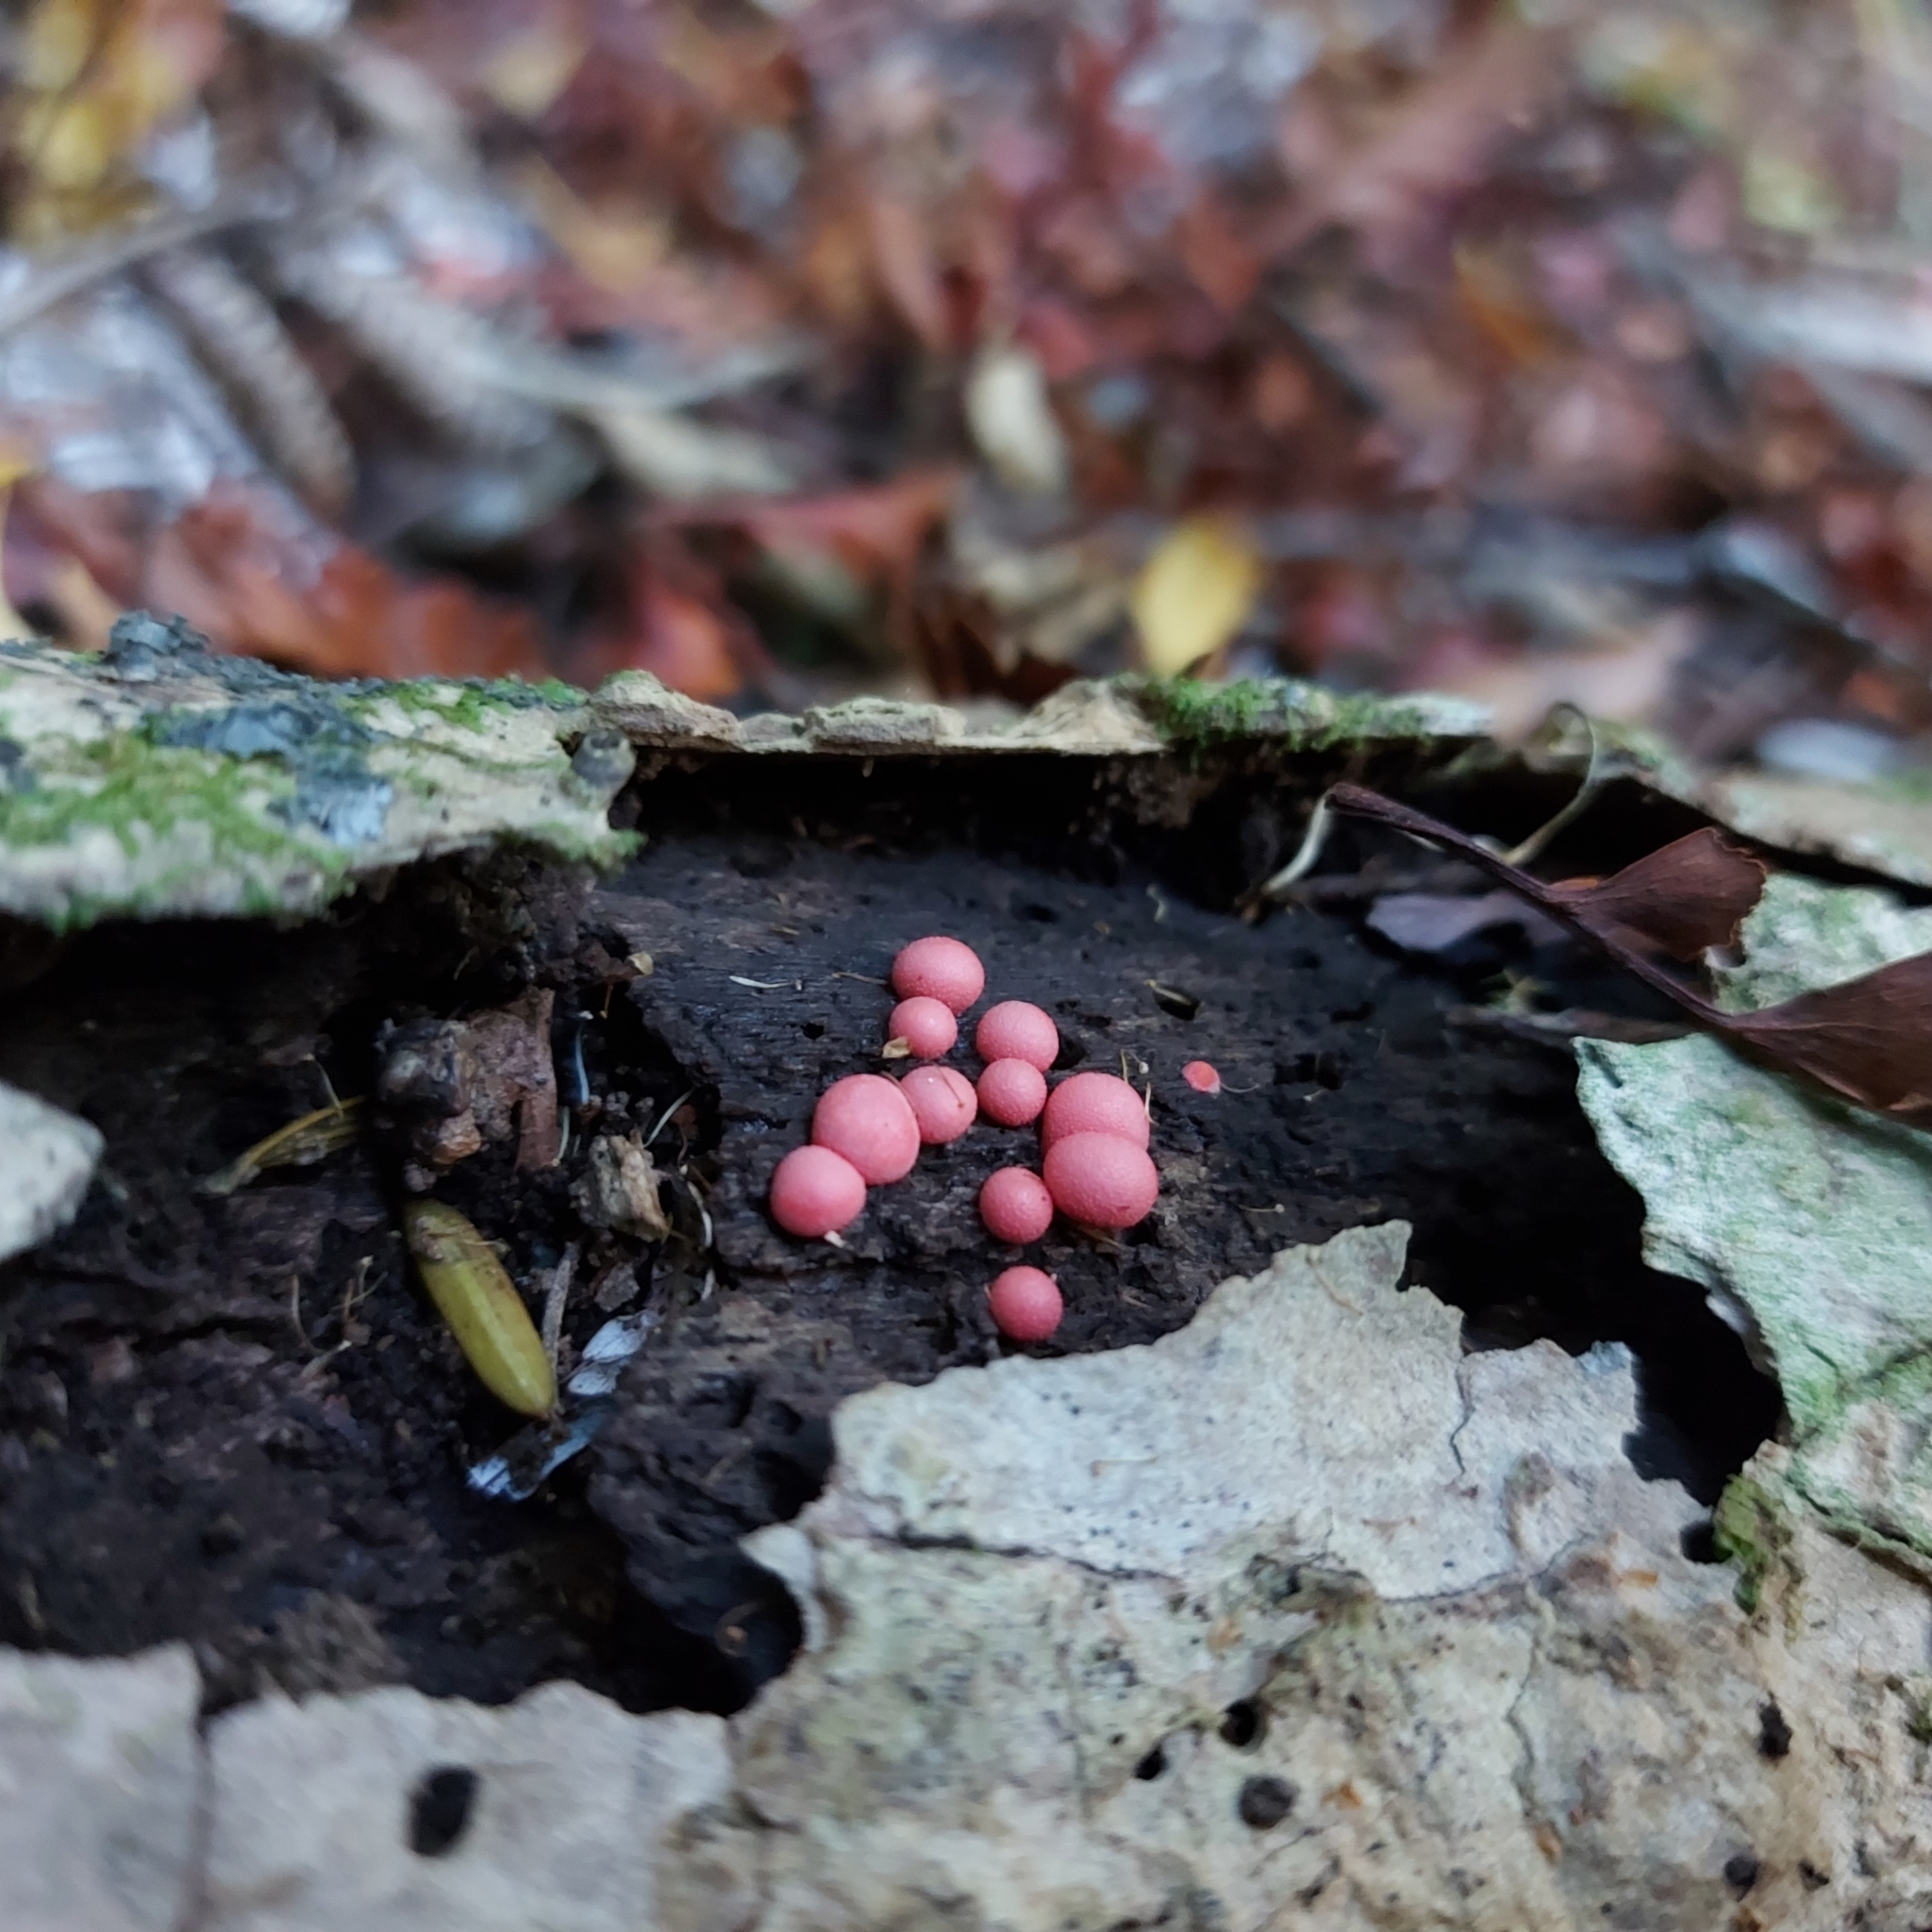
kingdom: Protozoa
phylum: Mycetozoa
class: Myxomycetes
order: Cribrariales
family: Tubiferaceae
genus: Lycogala
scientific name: Lycogala epidendrum
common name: Wolf's milk
